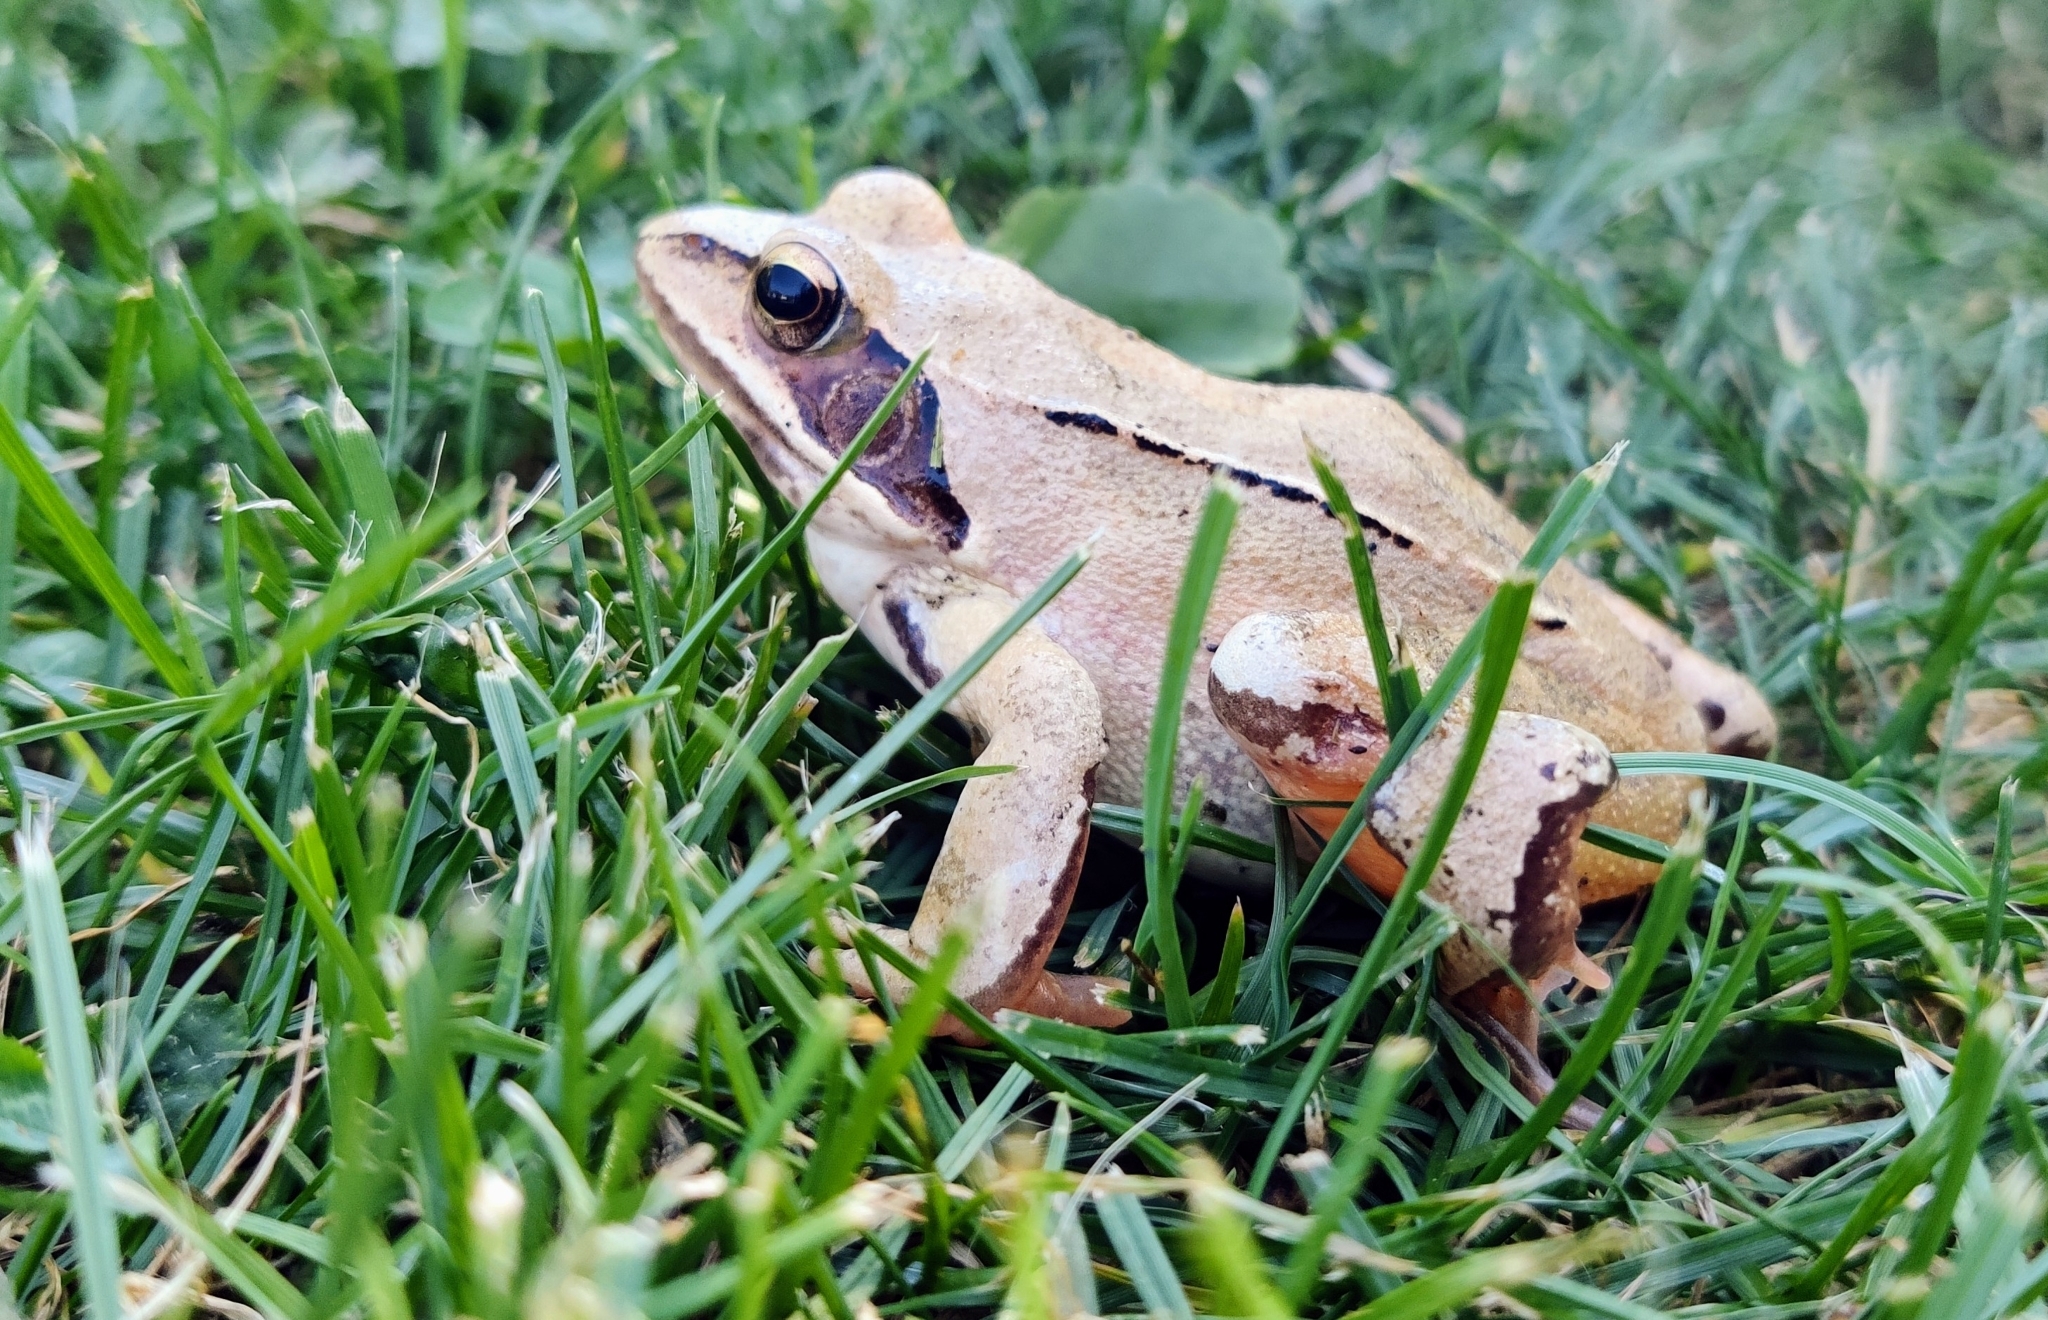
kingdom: Animalia
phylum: Chordata
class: Amphibia
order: Anura
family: Ranidae
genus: Rana
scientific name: Rana dalmatina
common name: Agile frog
